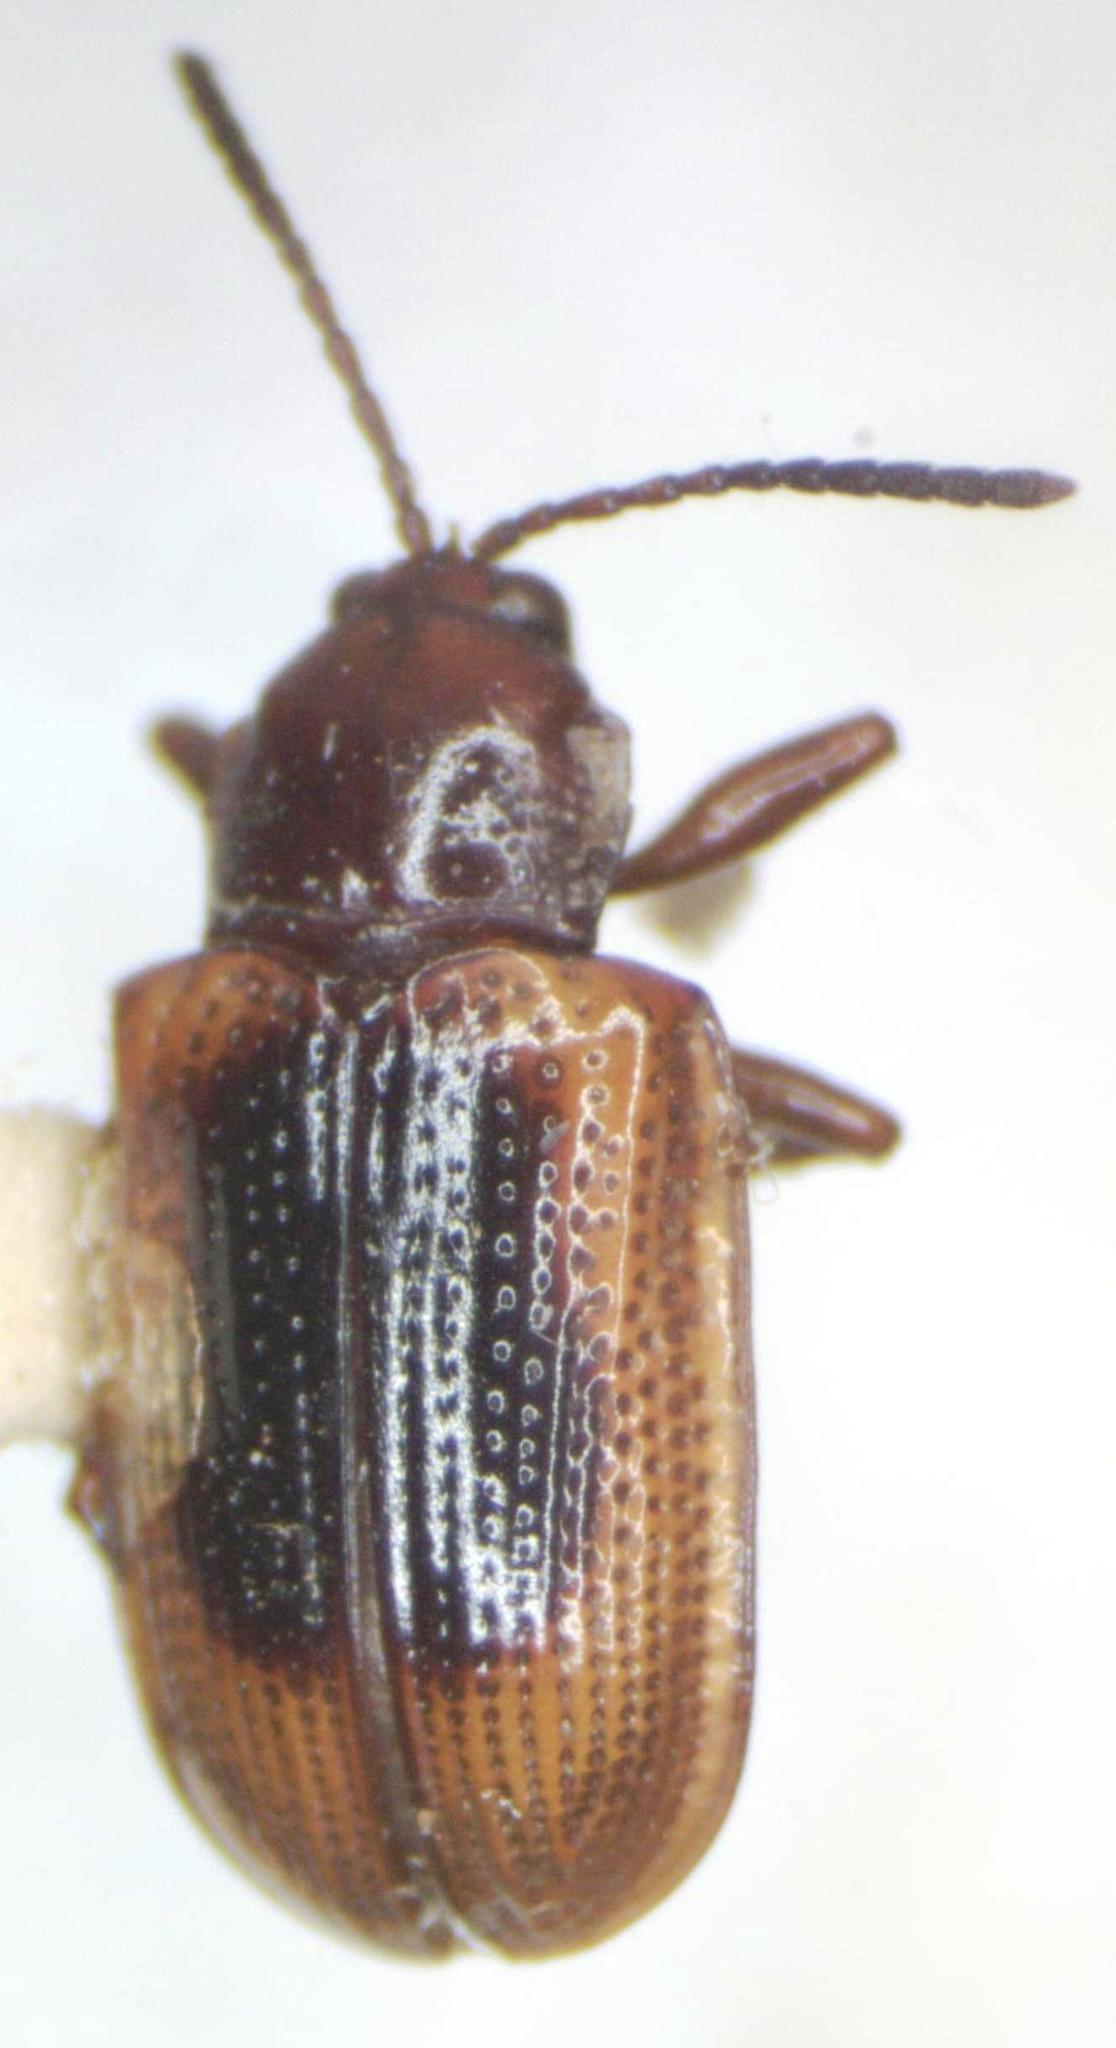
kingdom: Animalia
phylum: Arthropoda
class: Insecta
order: Coleoptera
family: Chrysomelidae
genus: Prosopodonta
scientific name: Prosopodonta dorsata
